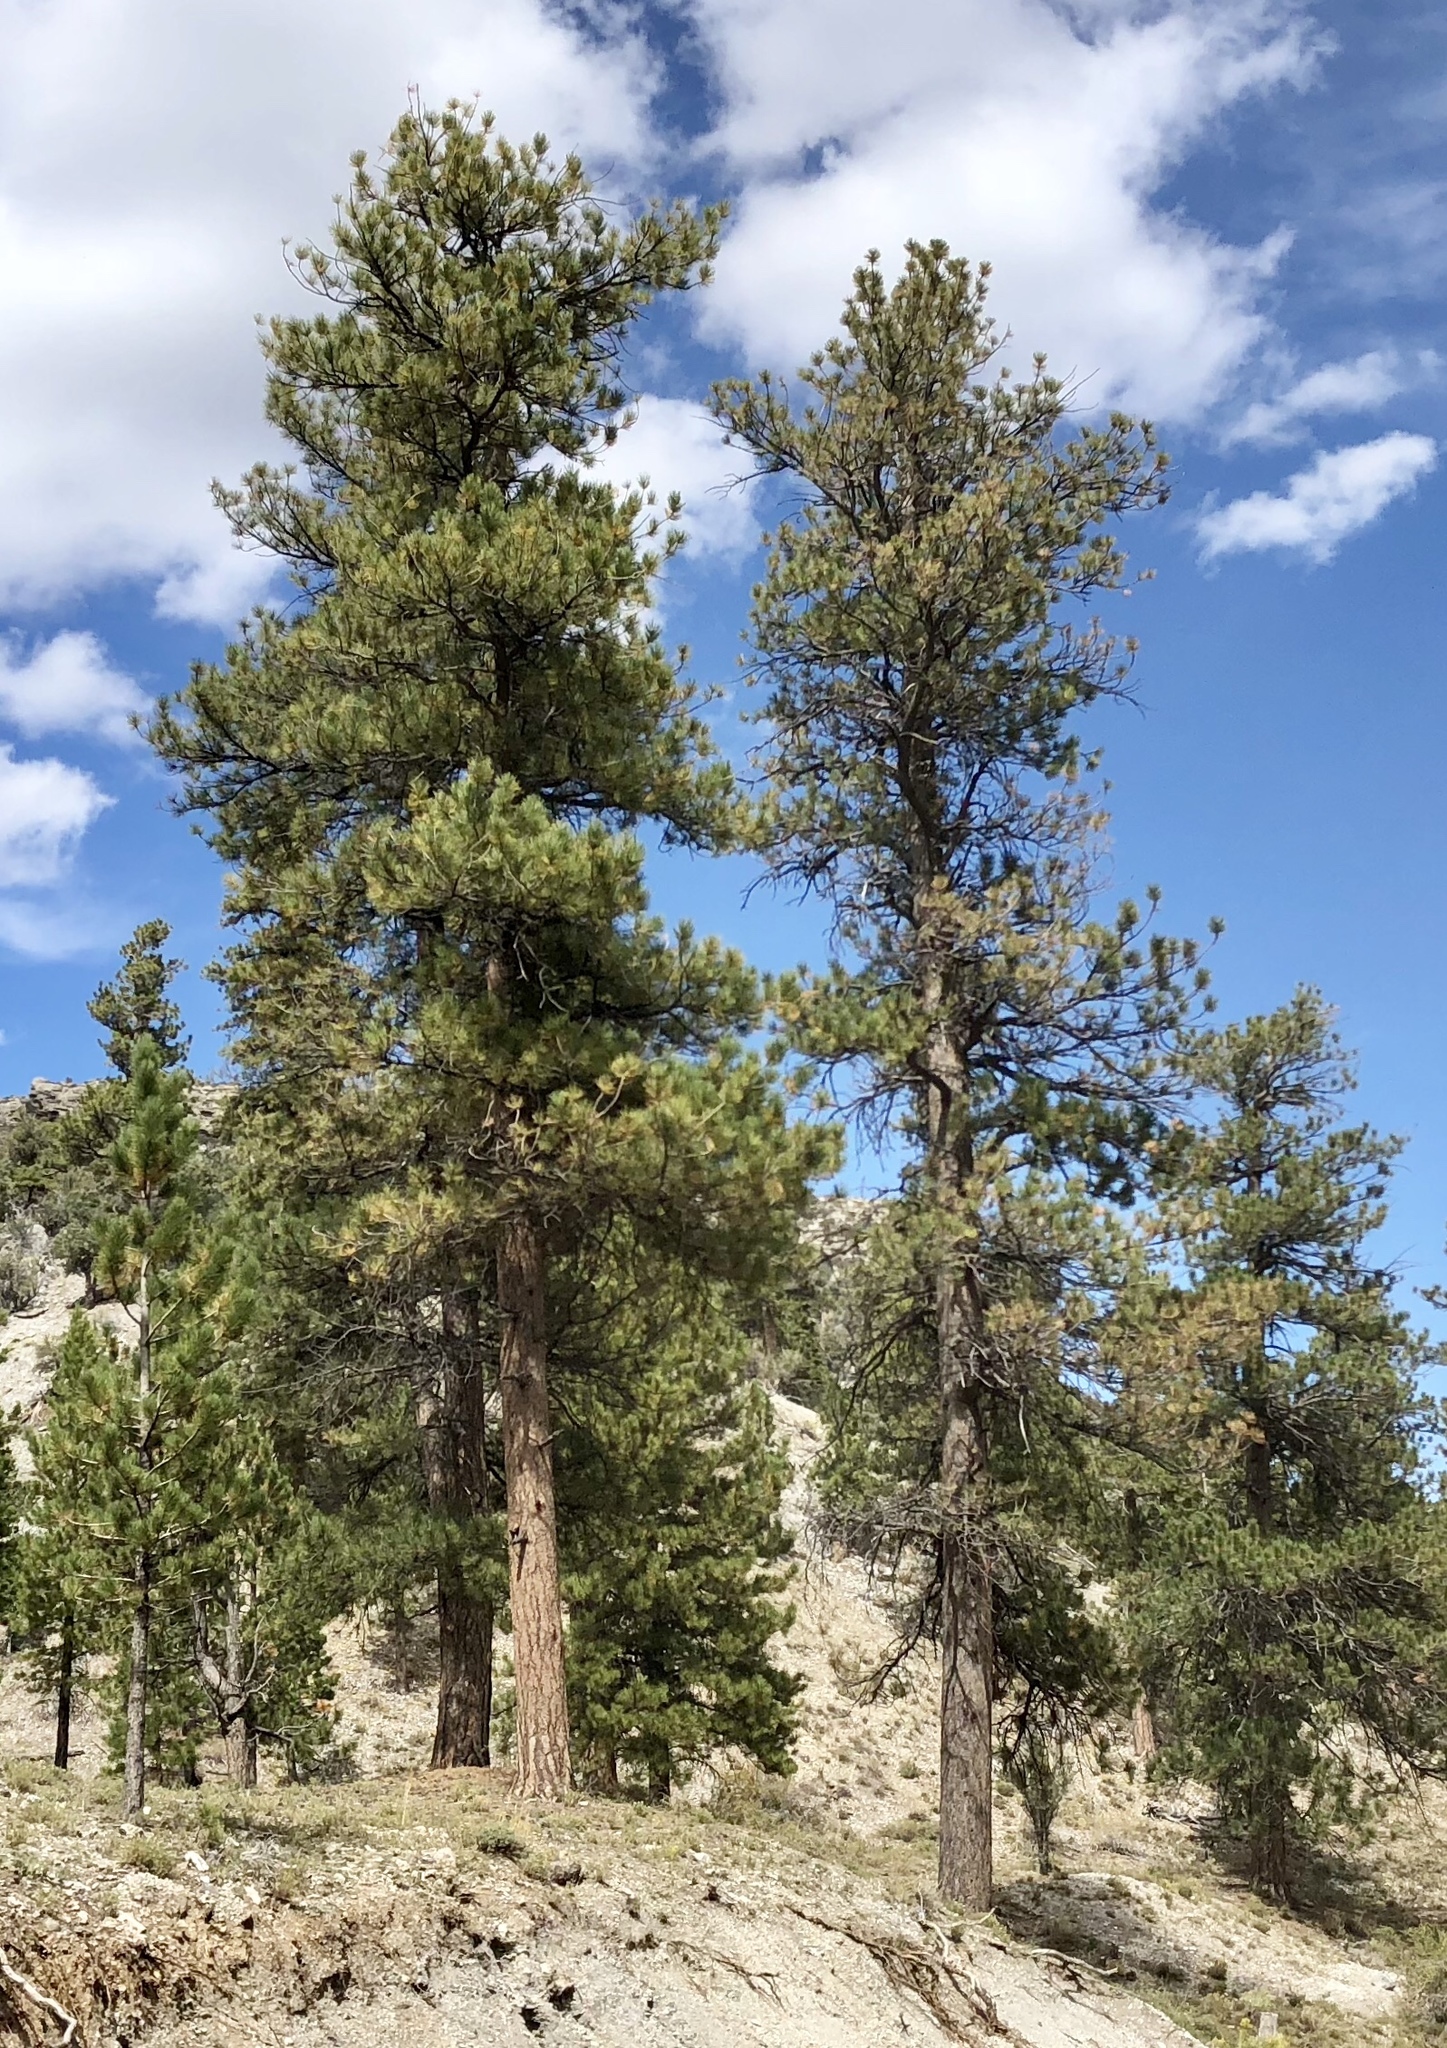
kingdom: Plantae
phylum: Tracheophyta
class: Pinopsida
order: Pinales
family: Pinaceae
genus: Pinus
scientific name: Pinus ponderosa
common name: Western yellow-pine
